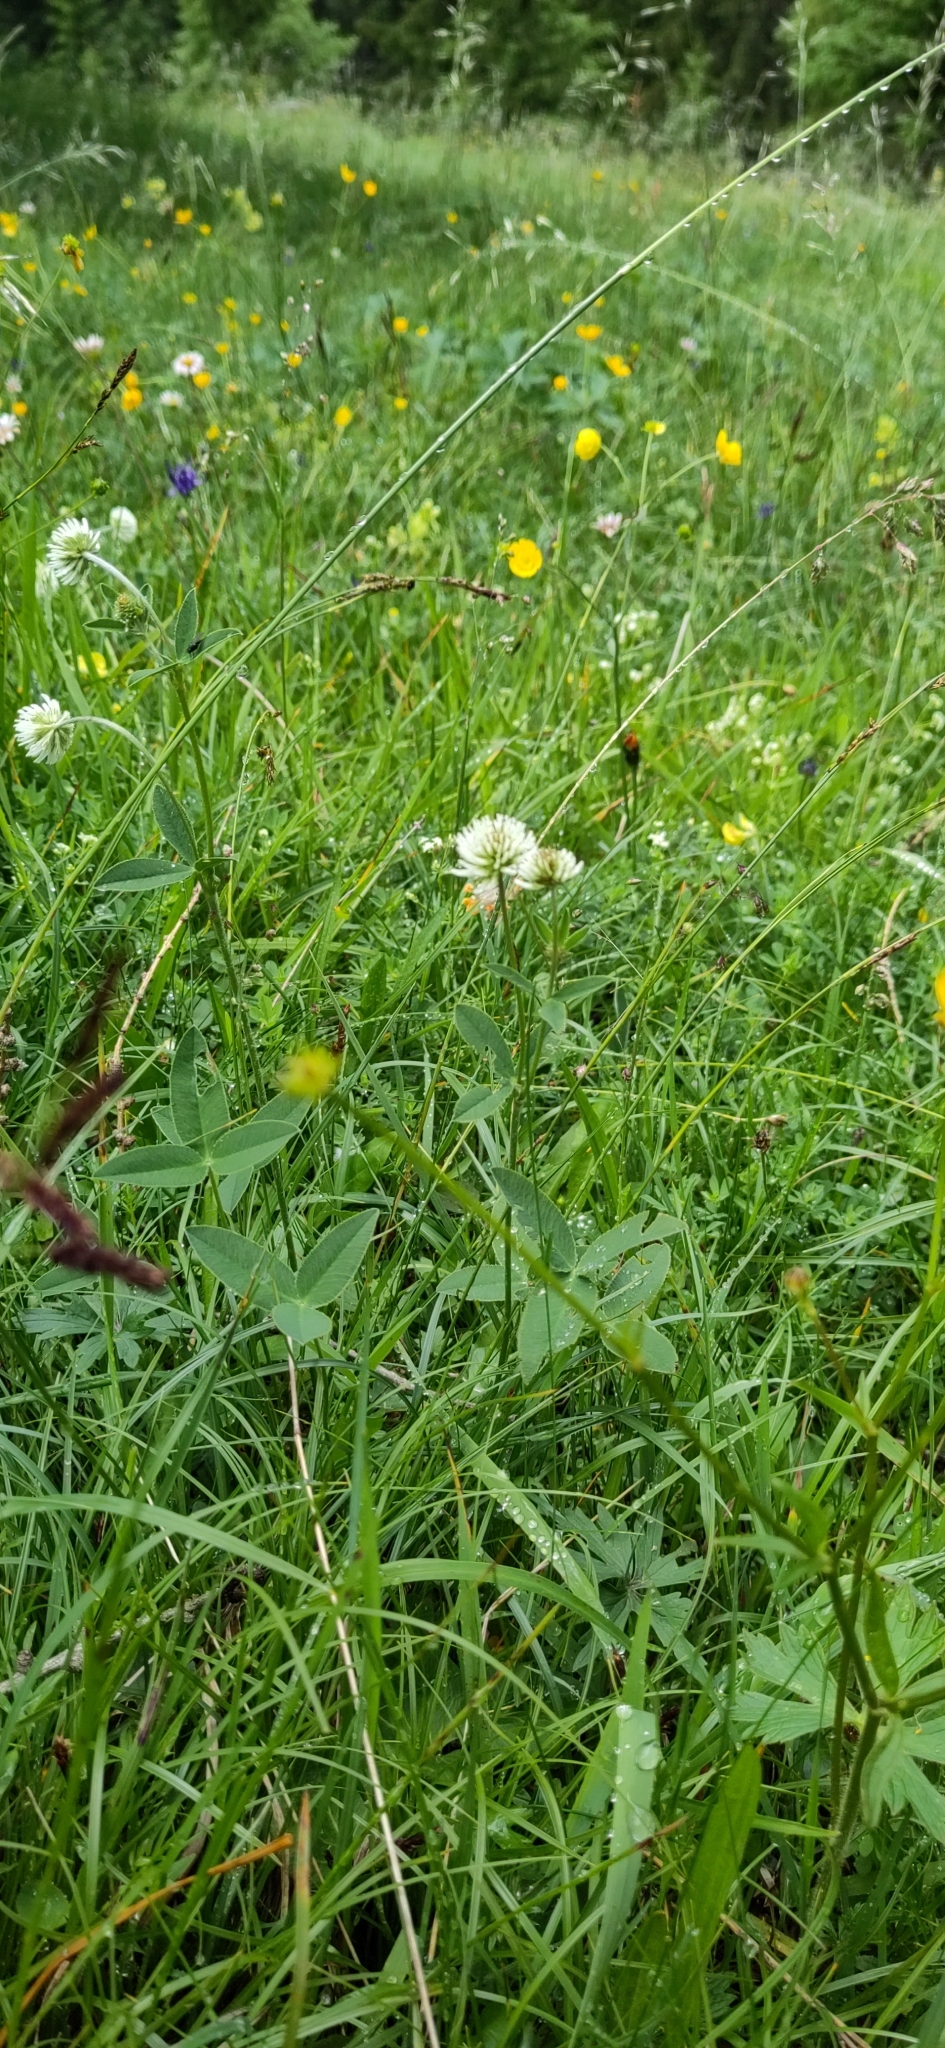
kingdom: Plantae
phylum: Tracheophyta
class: Magnoliopsida
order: Fabales
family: Fabaceae
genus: Trifolium
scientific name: Trifolium montanum
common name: Mountain clover
